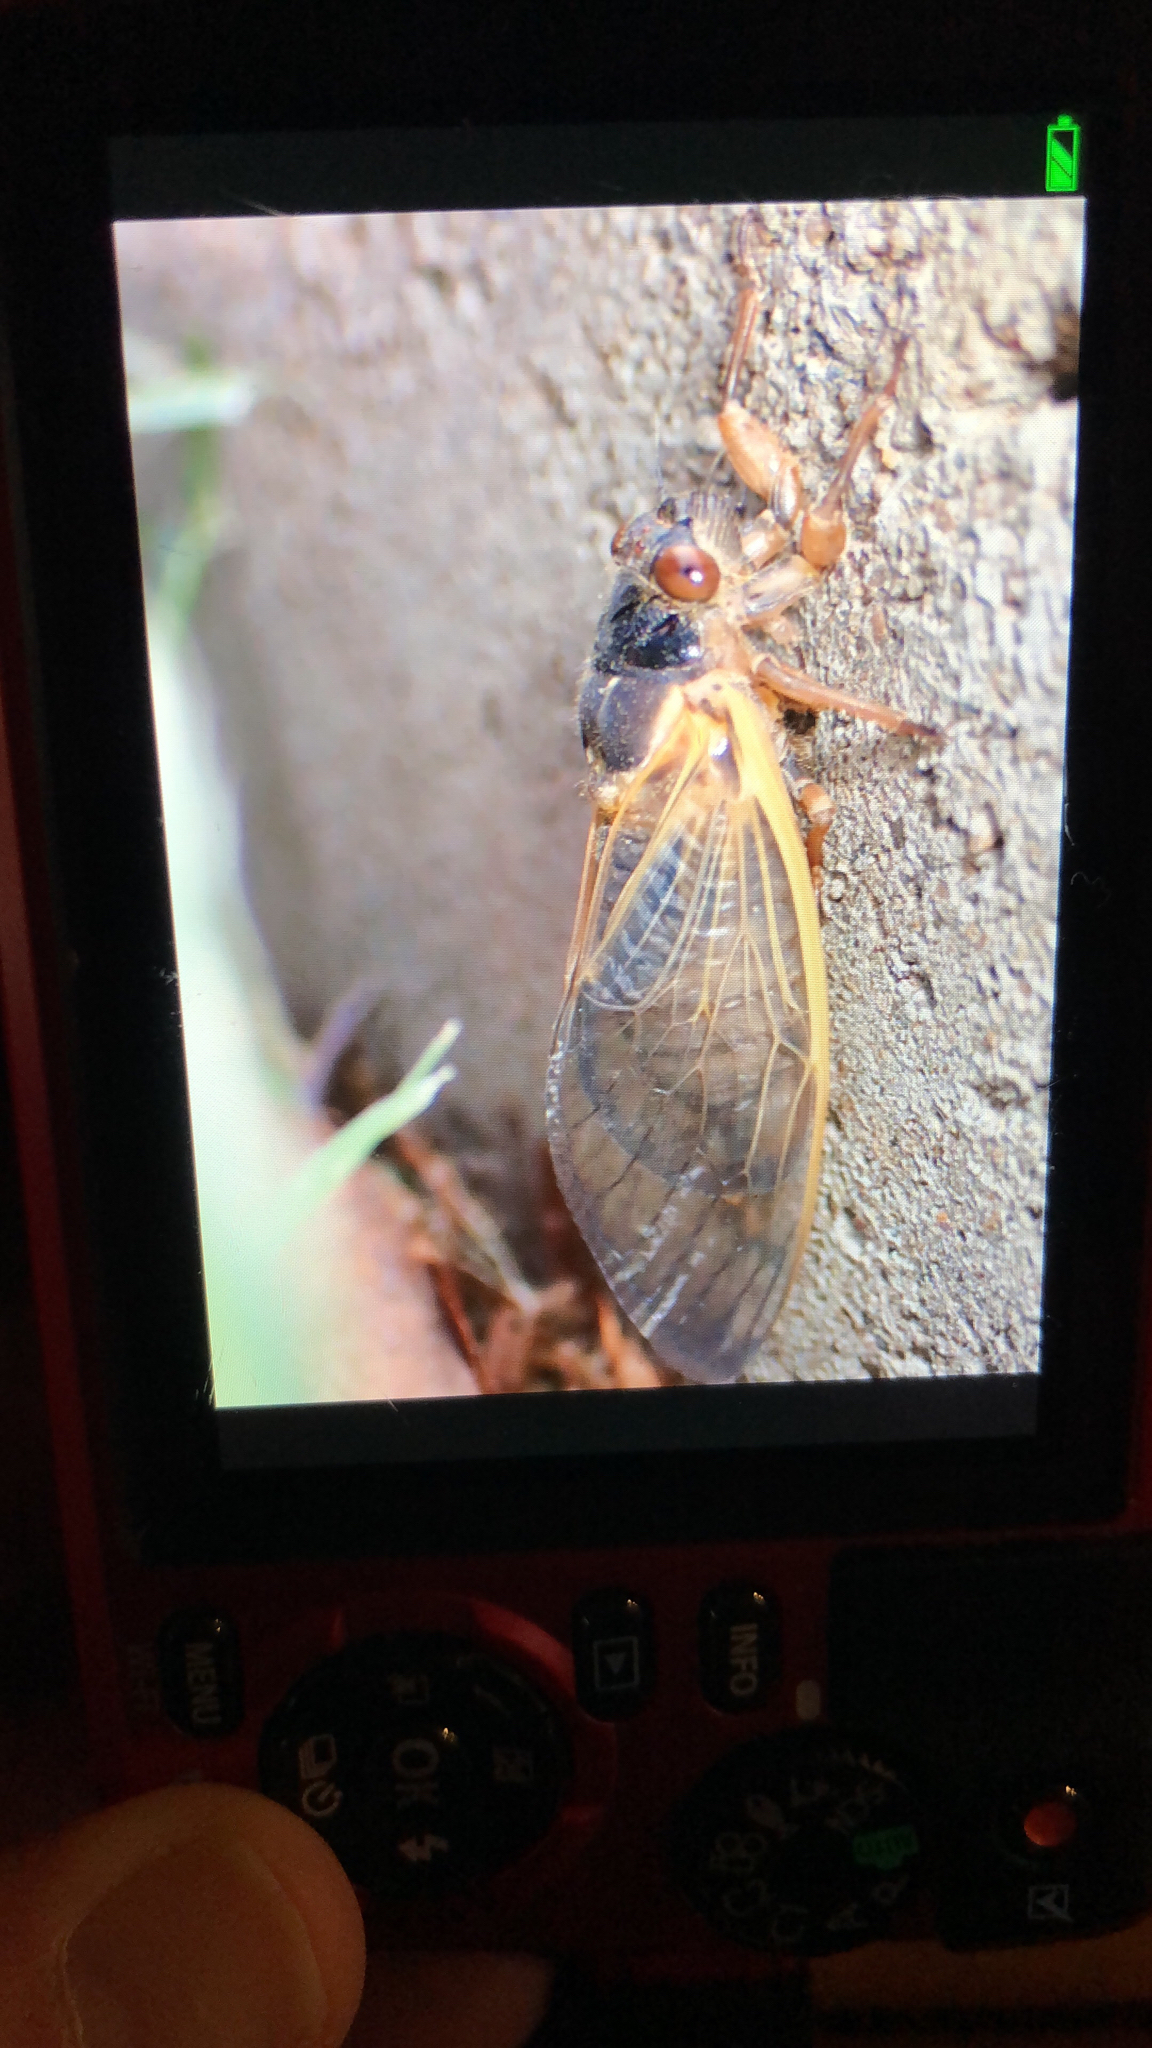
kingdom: Animalia
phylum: Arthropoda
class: Insecta
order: Hemiptera
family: Cicadidae
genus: Magicicada
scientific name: Magicicada
